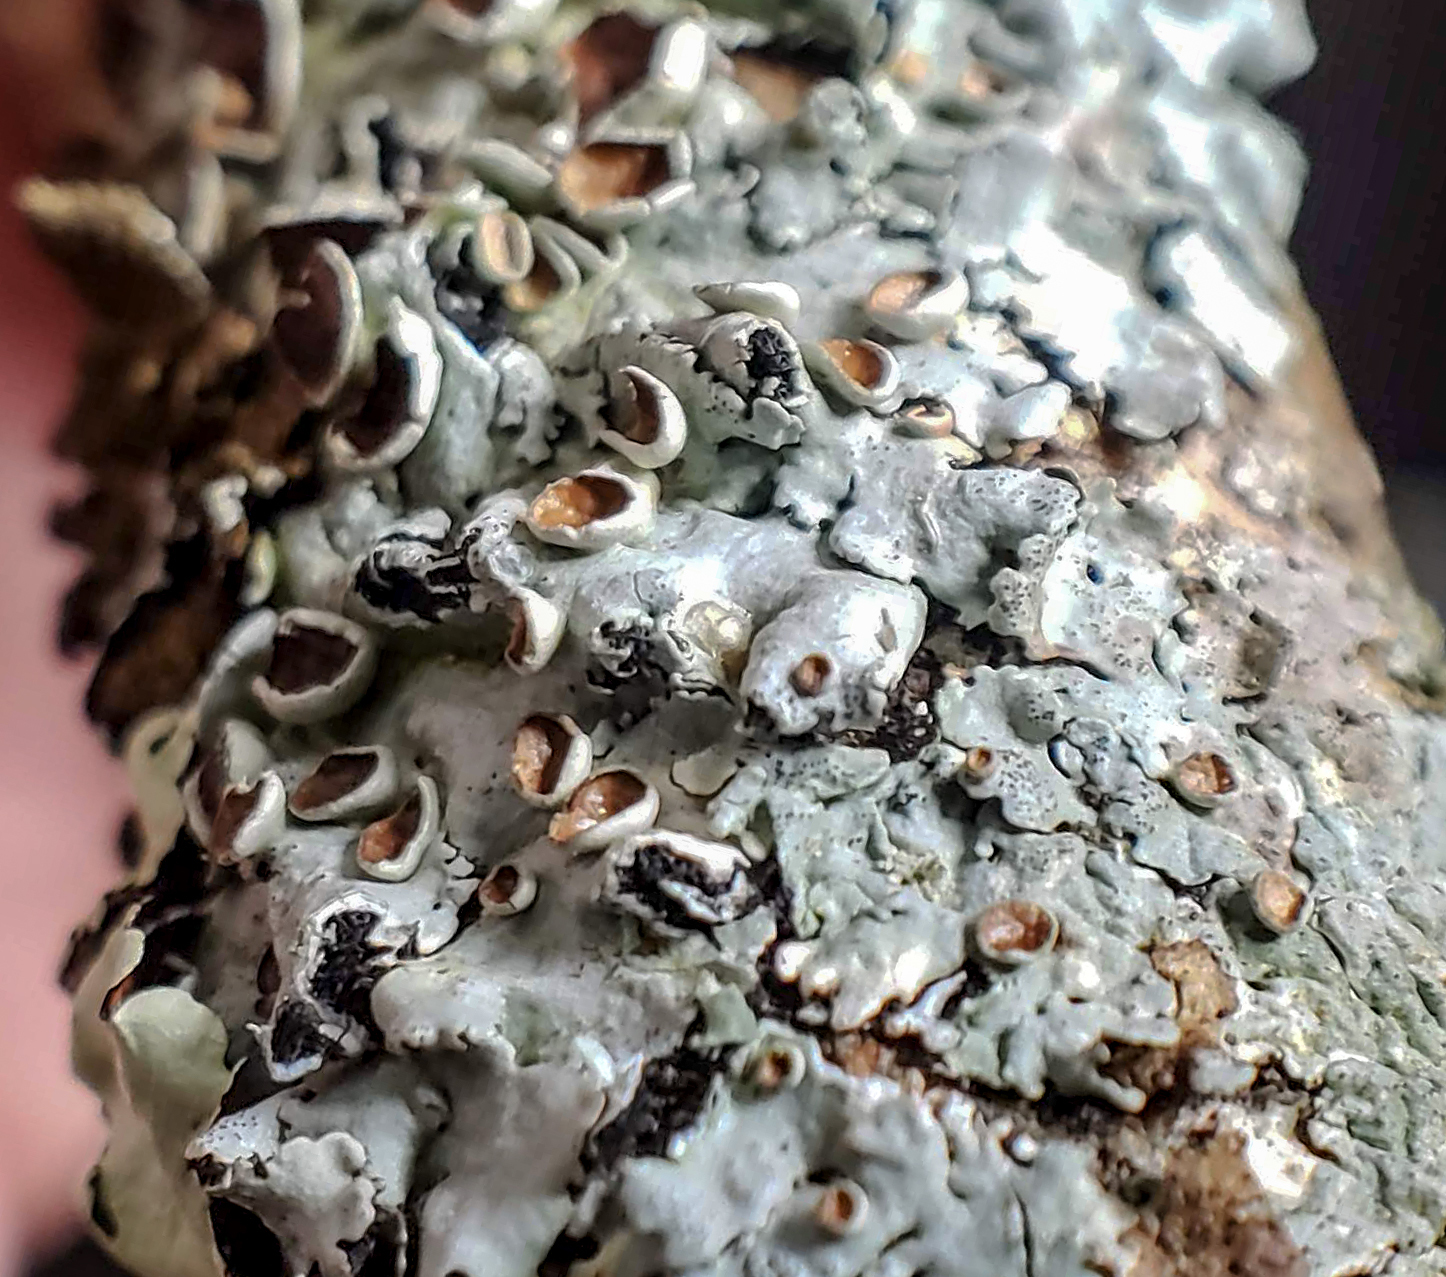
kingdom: Fungi
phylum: Ascomycota
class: Lecanoromycetes
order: Lecanorales
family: Parmeliaceae
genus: Myelochroa
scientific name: Myelochroa galbina
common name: Smooth axil-bristle lichen
